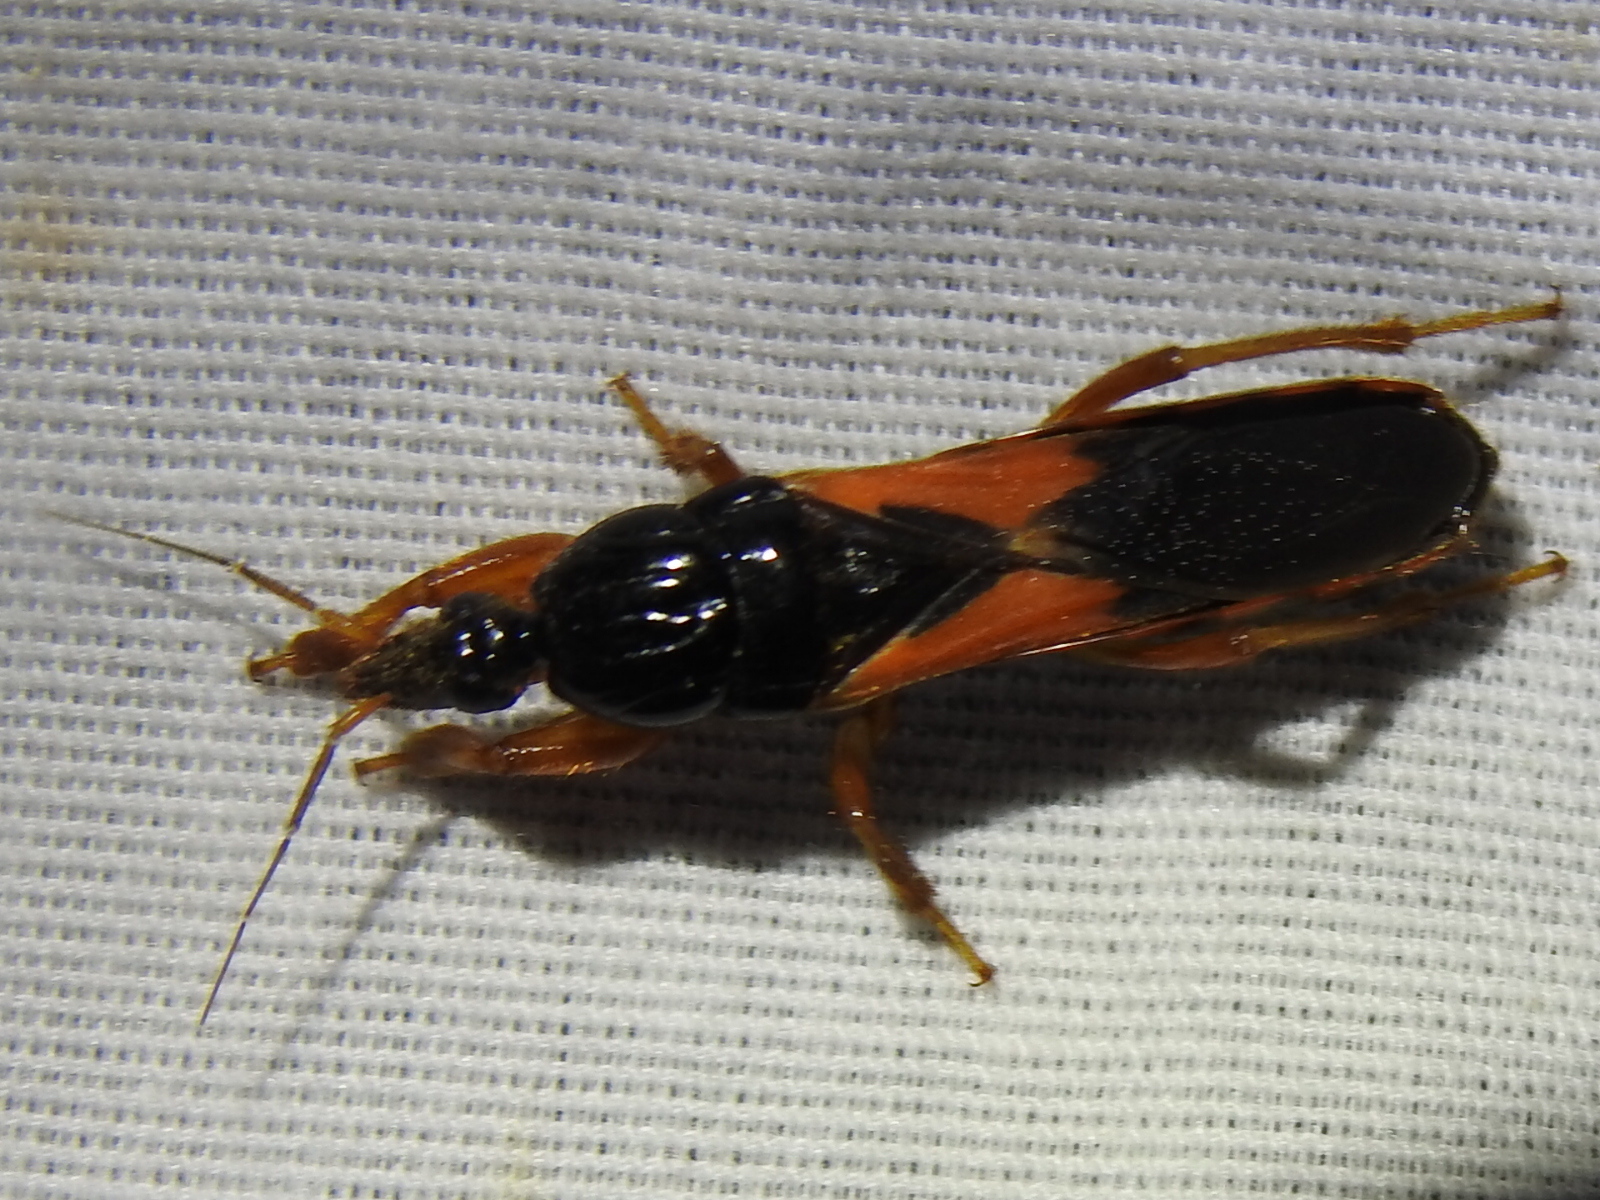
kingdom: Animalia
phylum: Arthropoda
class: Insecta
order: Hemiptera
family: Reduviidae
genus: Sirthenea
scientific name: Sirthenea stria
